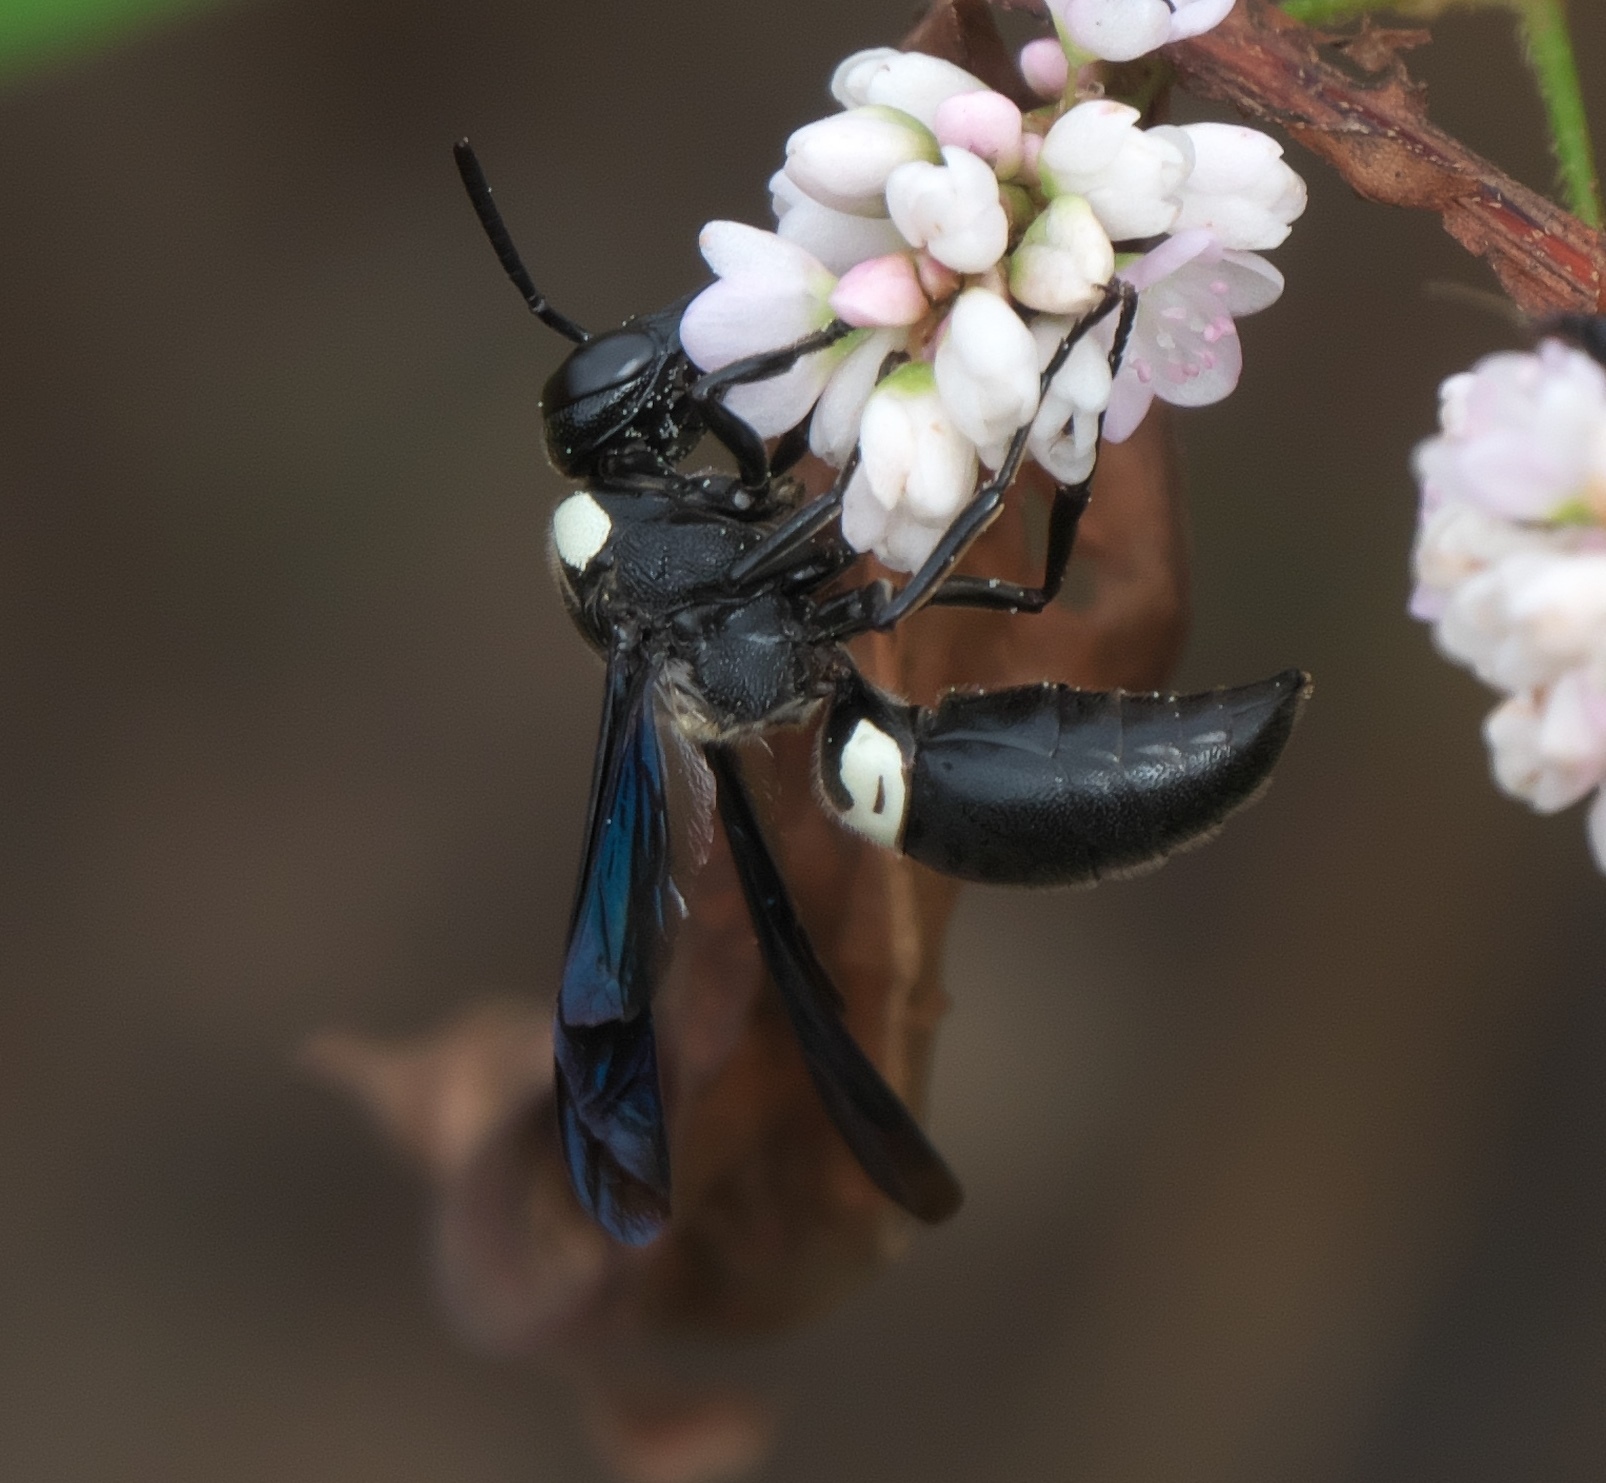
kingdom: Animalia
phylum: Arthropoda
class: Insecta
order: Hymenoptera
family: Eumenidae
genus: Monobia
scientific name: Monobia quadridens
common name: Four-toothed mason wasp
